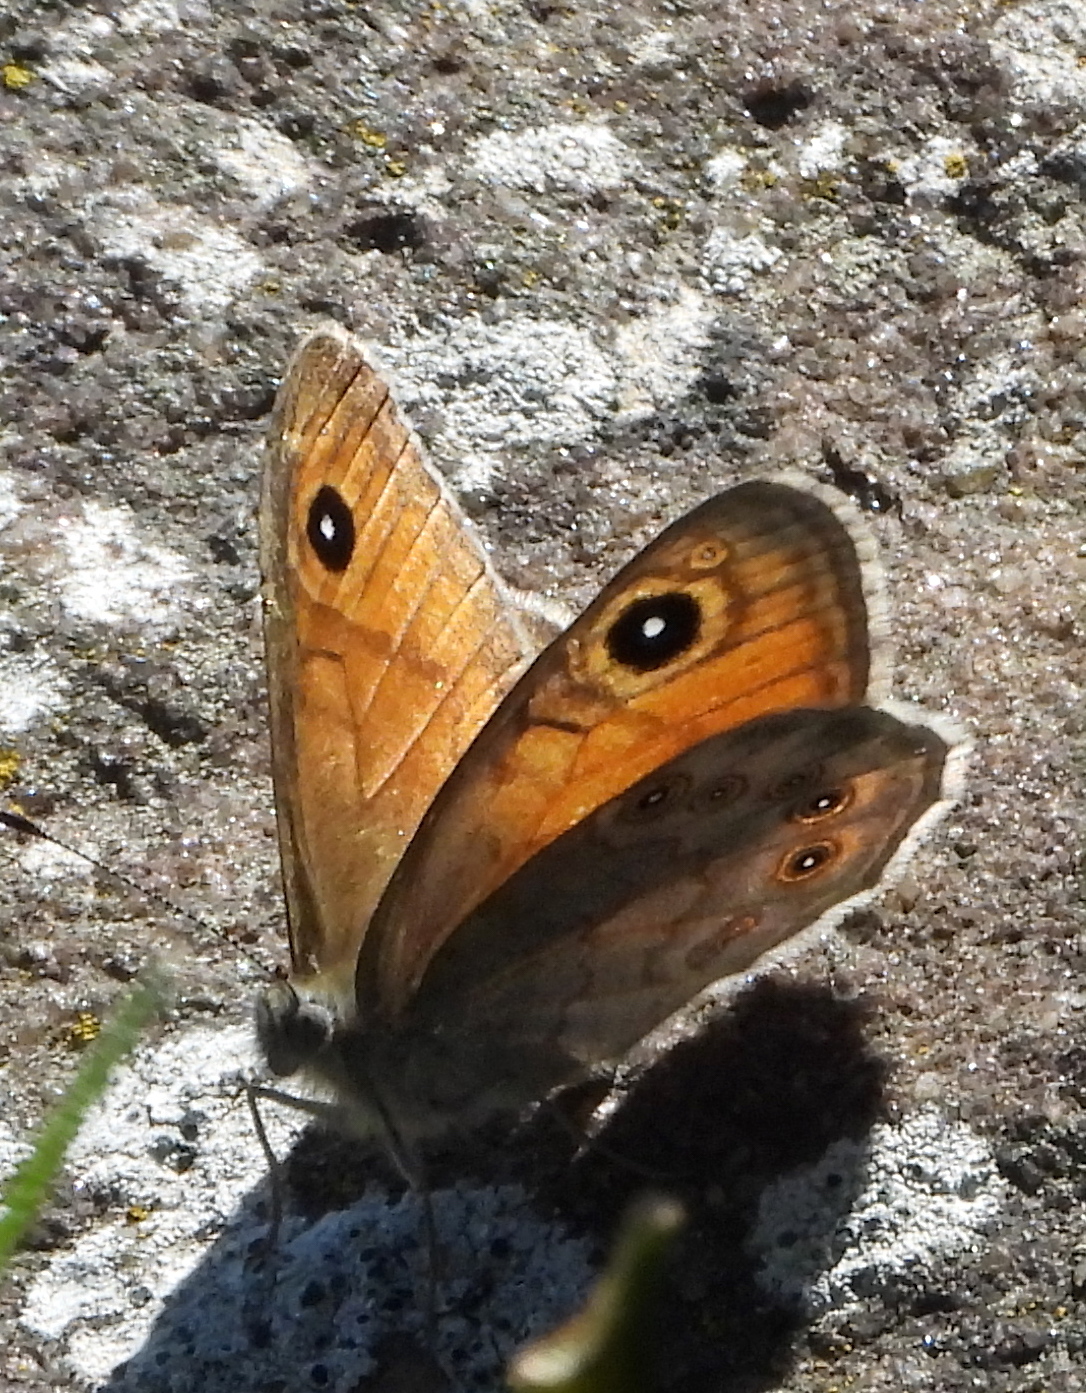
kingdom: Animalia
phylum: Arthropoda
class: Insecta
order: Lepidoptera
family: Nymphalidae
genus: Pararge
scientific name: Pararge Lasiommata maera
